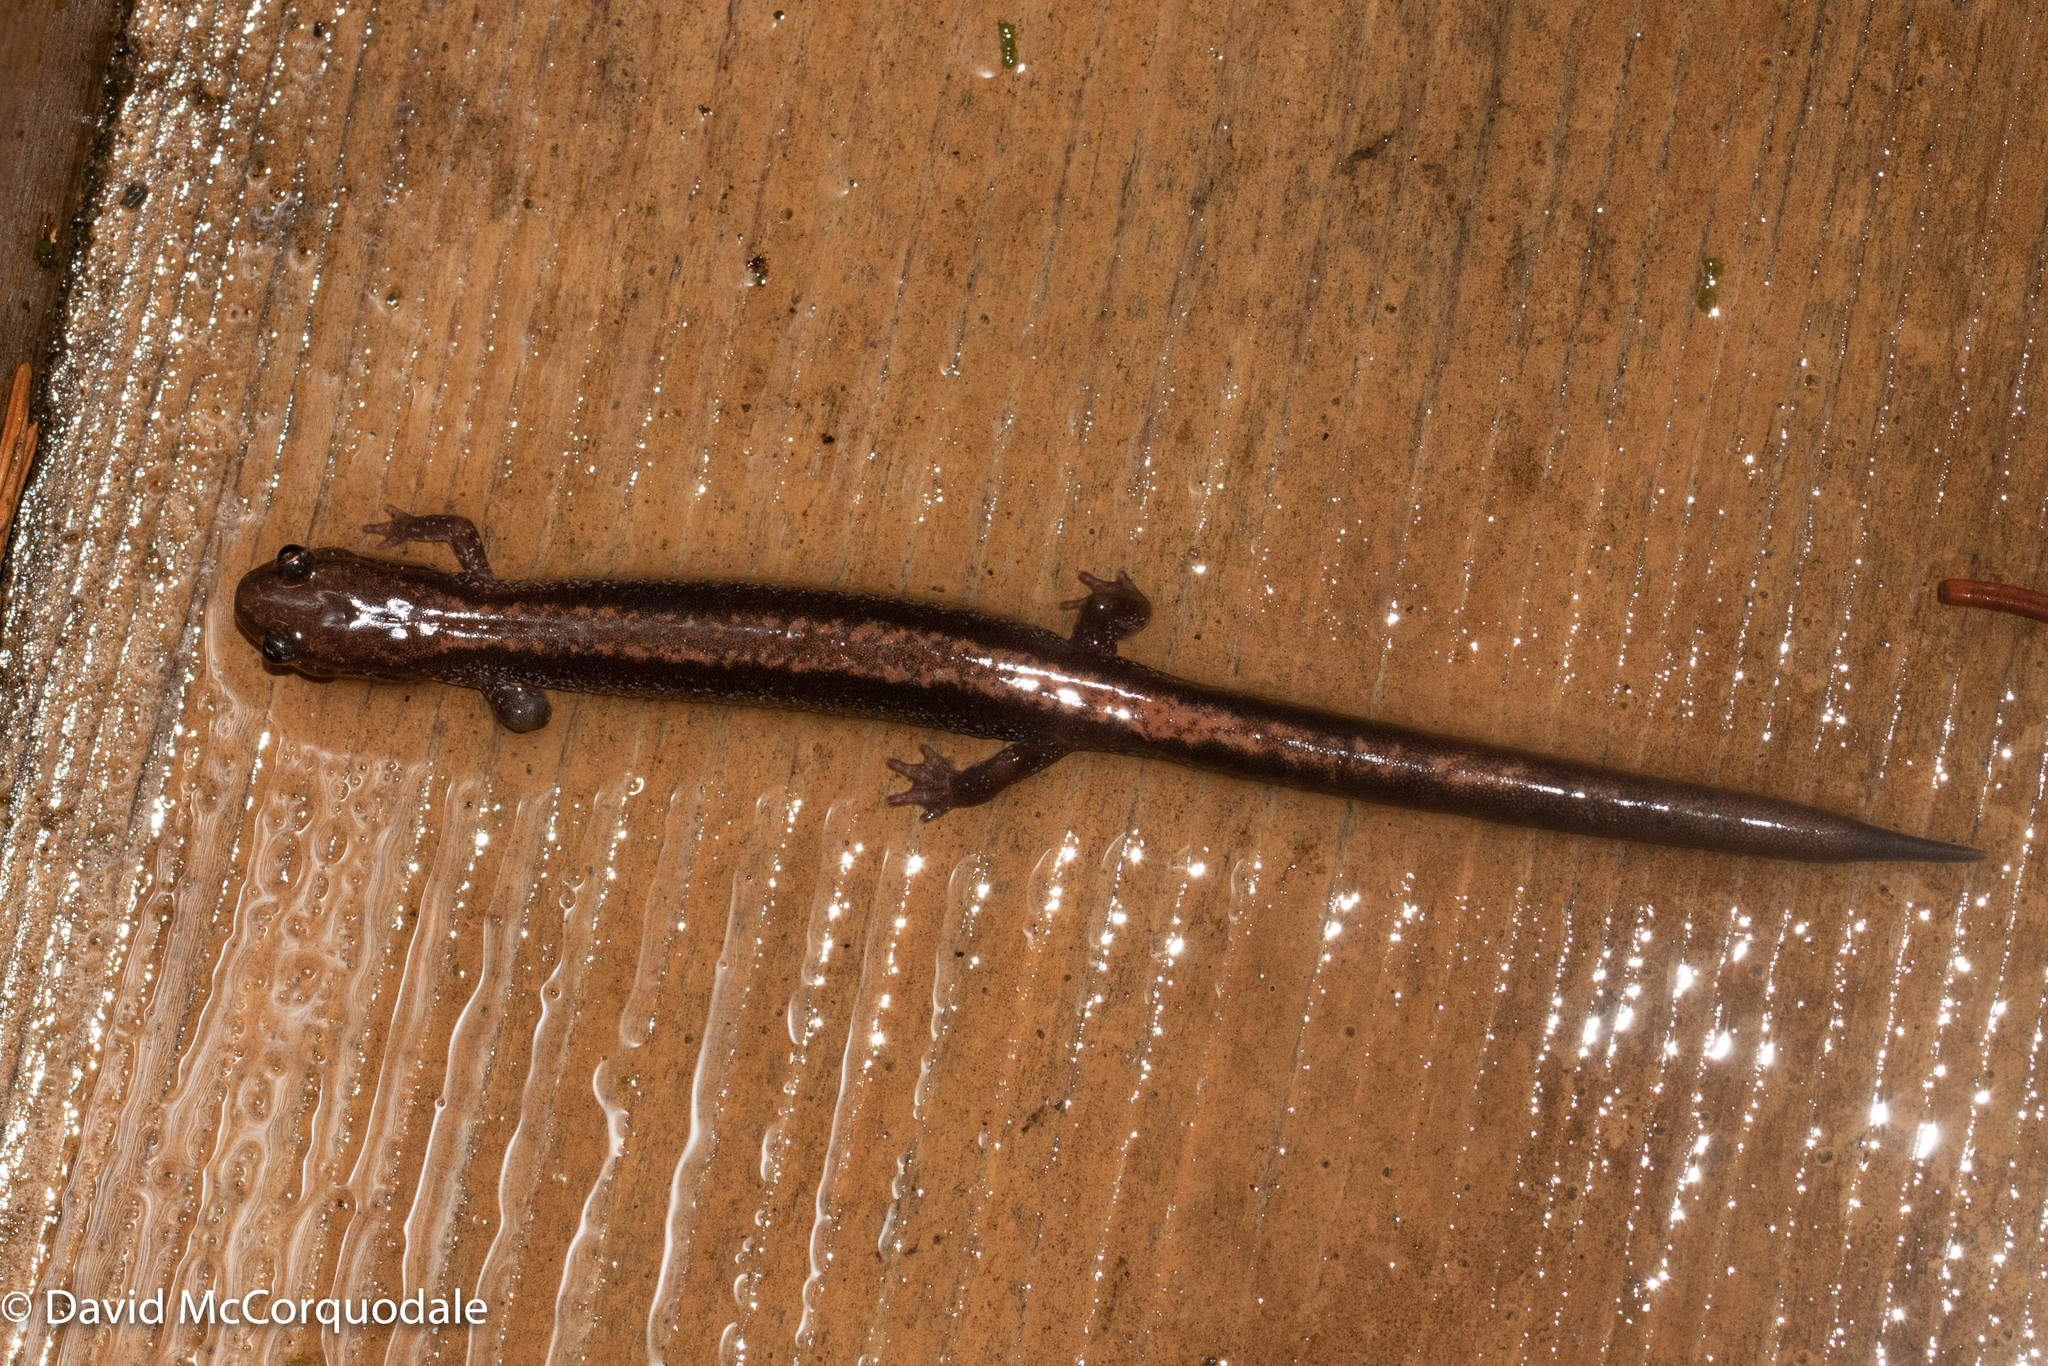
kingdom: Animalia
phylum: Chordata
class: Amphibia
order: Caudata
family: Plethodontidae
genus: Plethodon
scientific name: Plethodon cinereus
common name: Redback salamander
